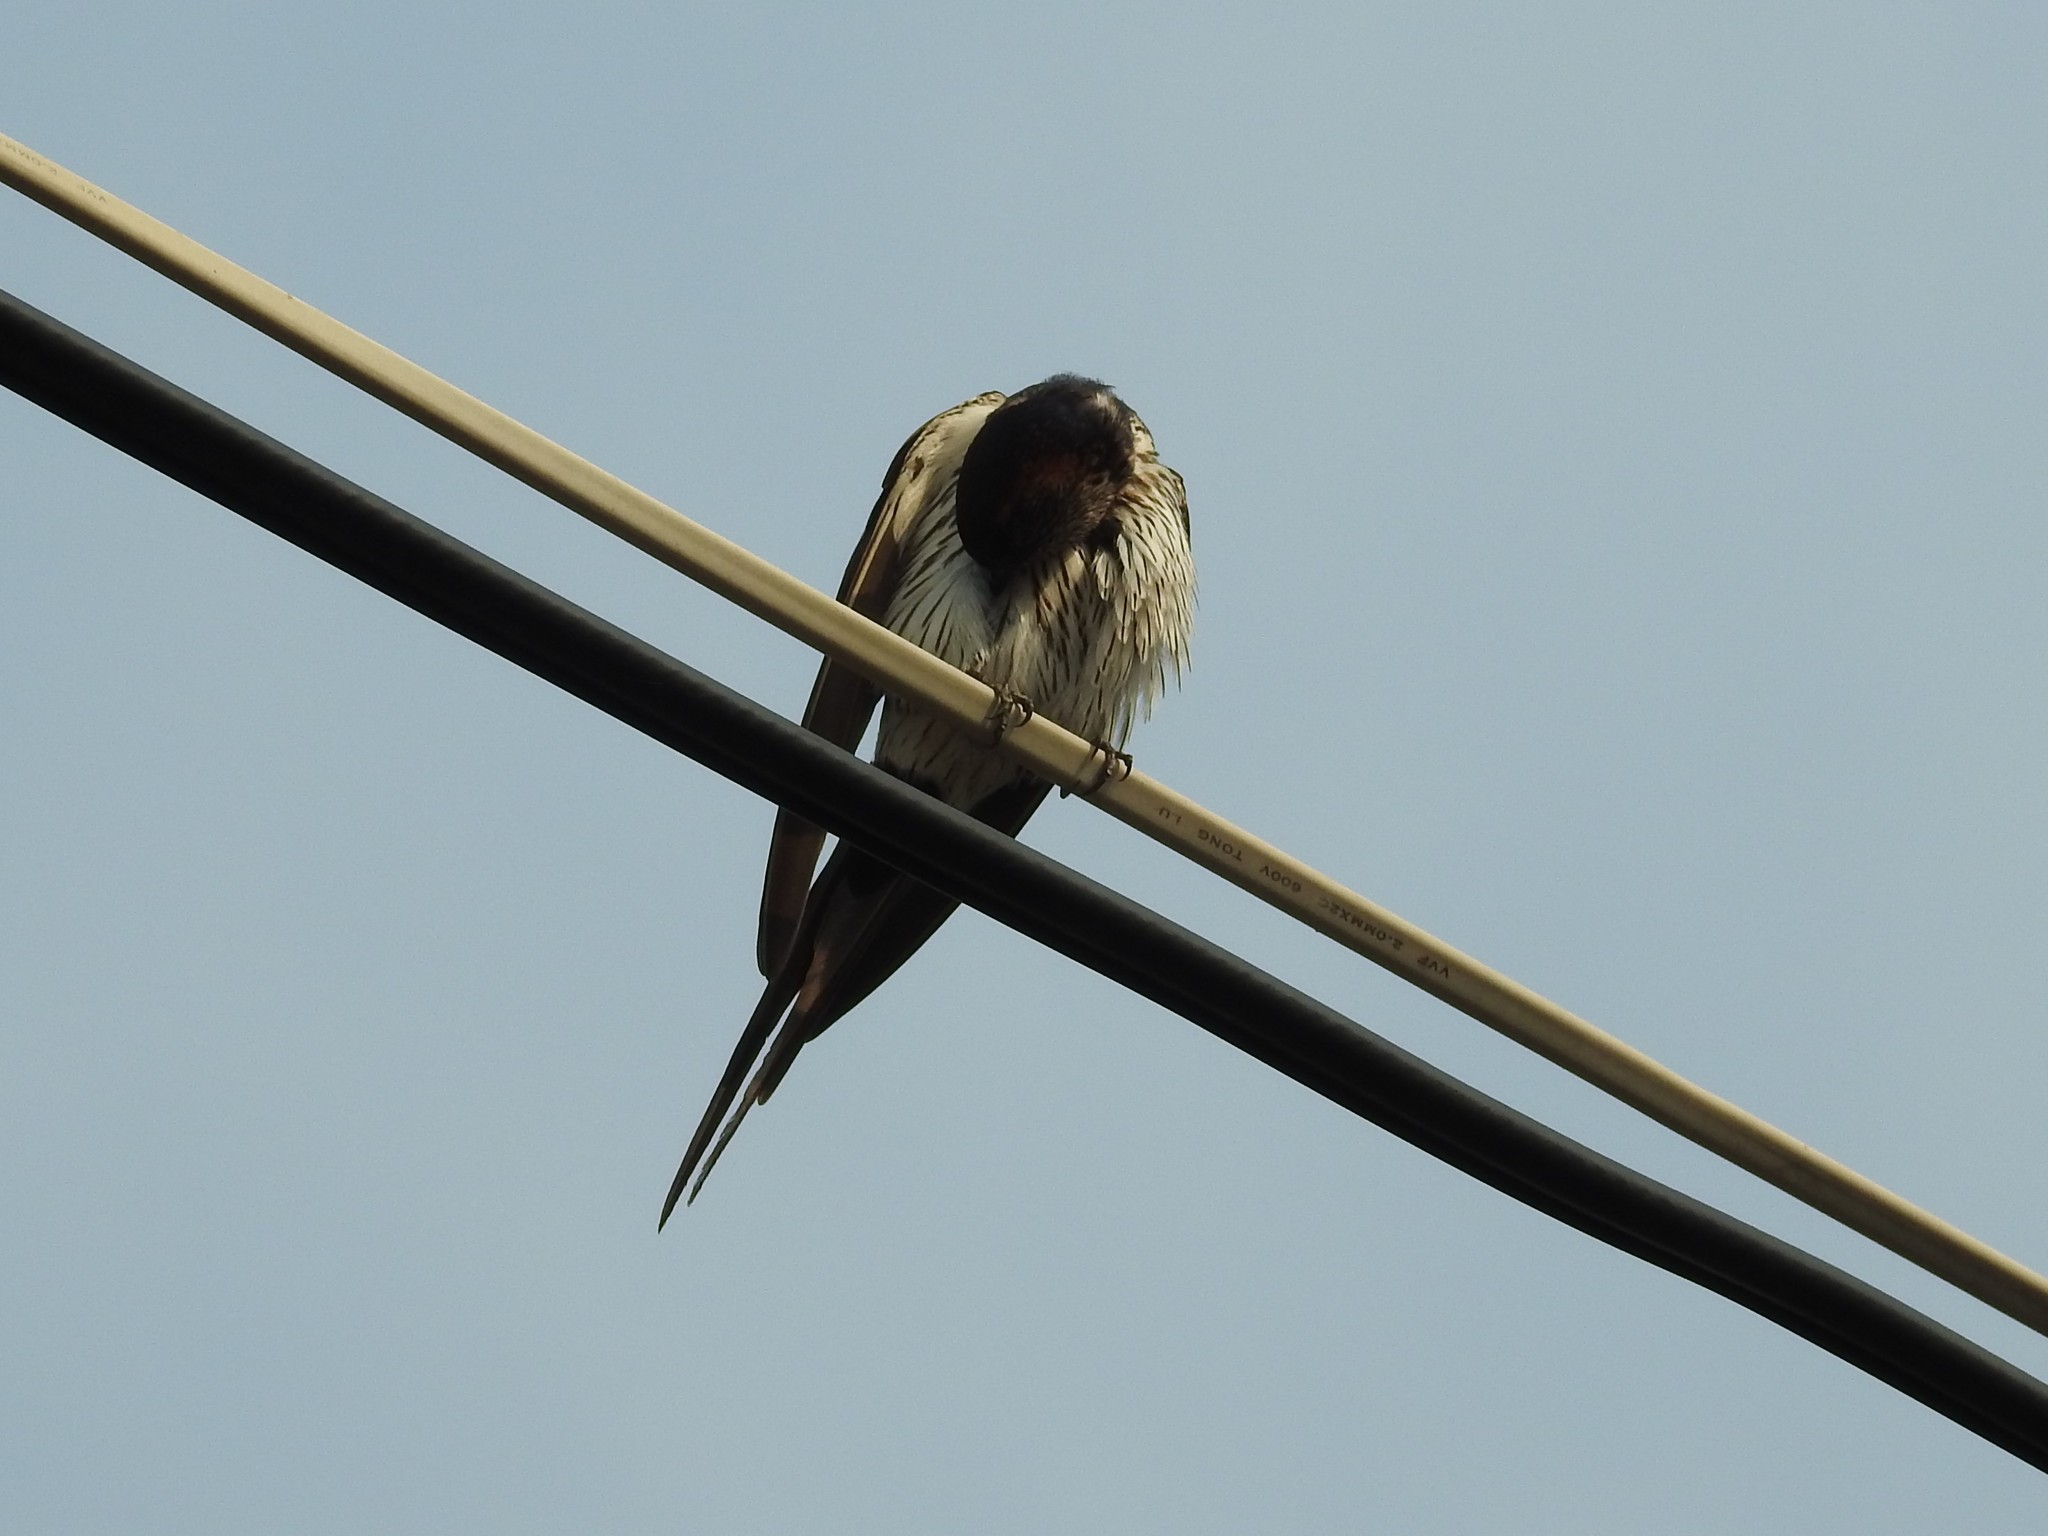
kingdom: Animalia
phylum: Chordata
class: Aves
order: Passeriformes
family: Hirundinidae
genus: Cecropis
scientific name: Cecropis striolata
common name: Striated swallow
